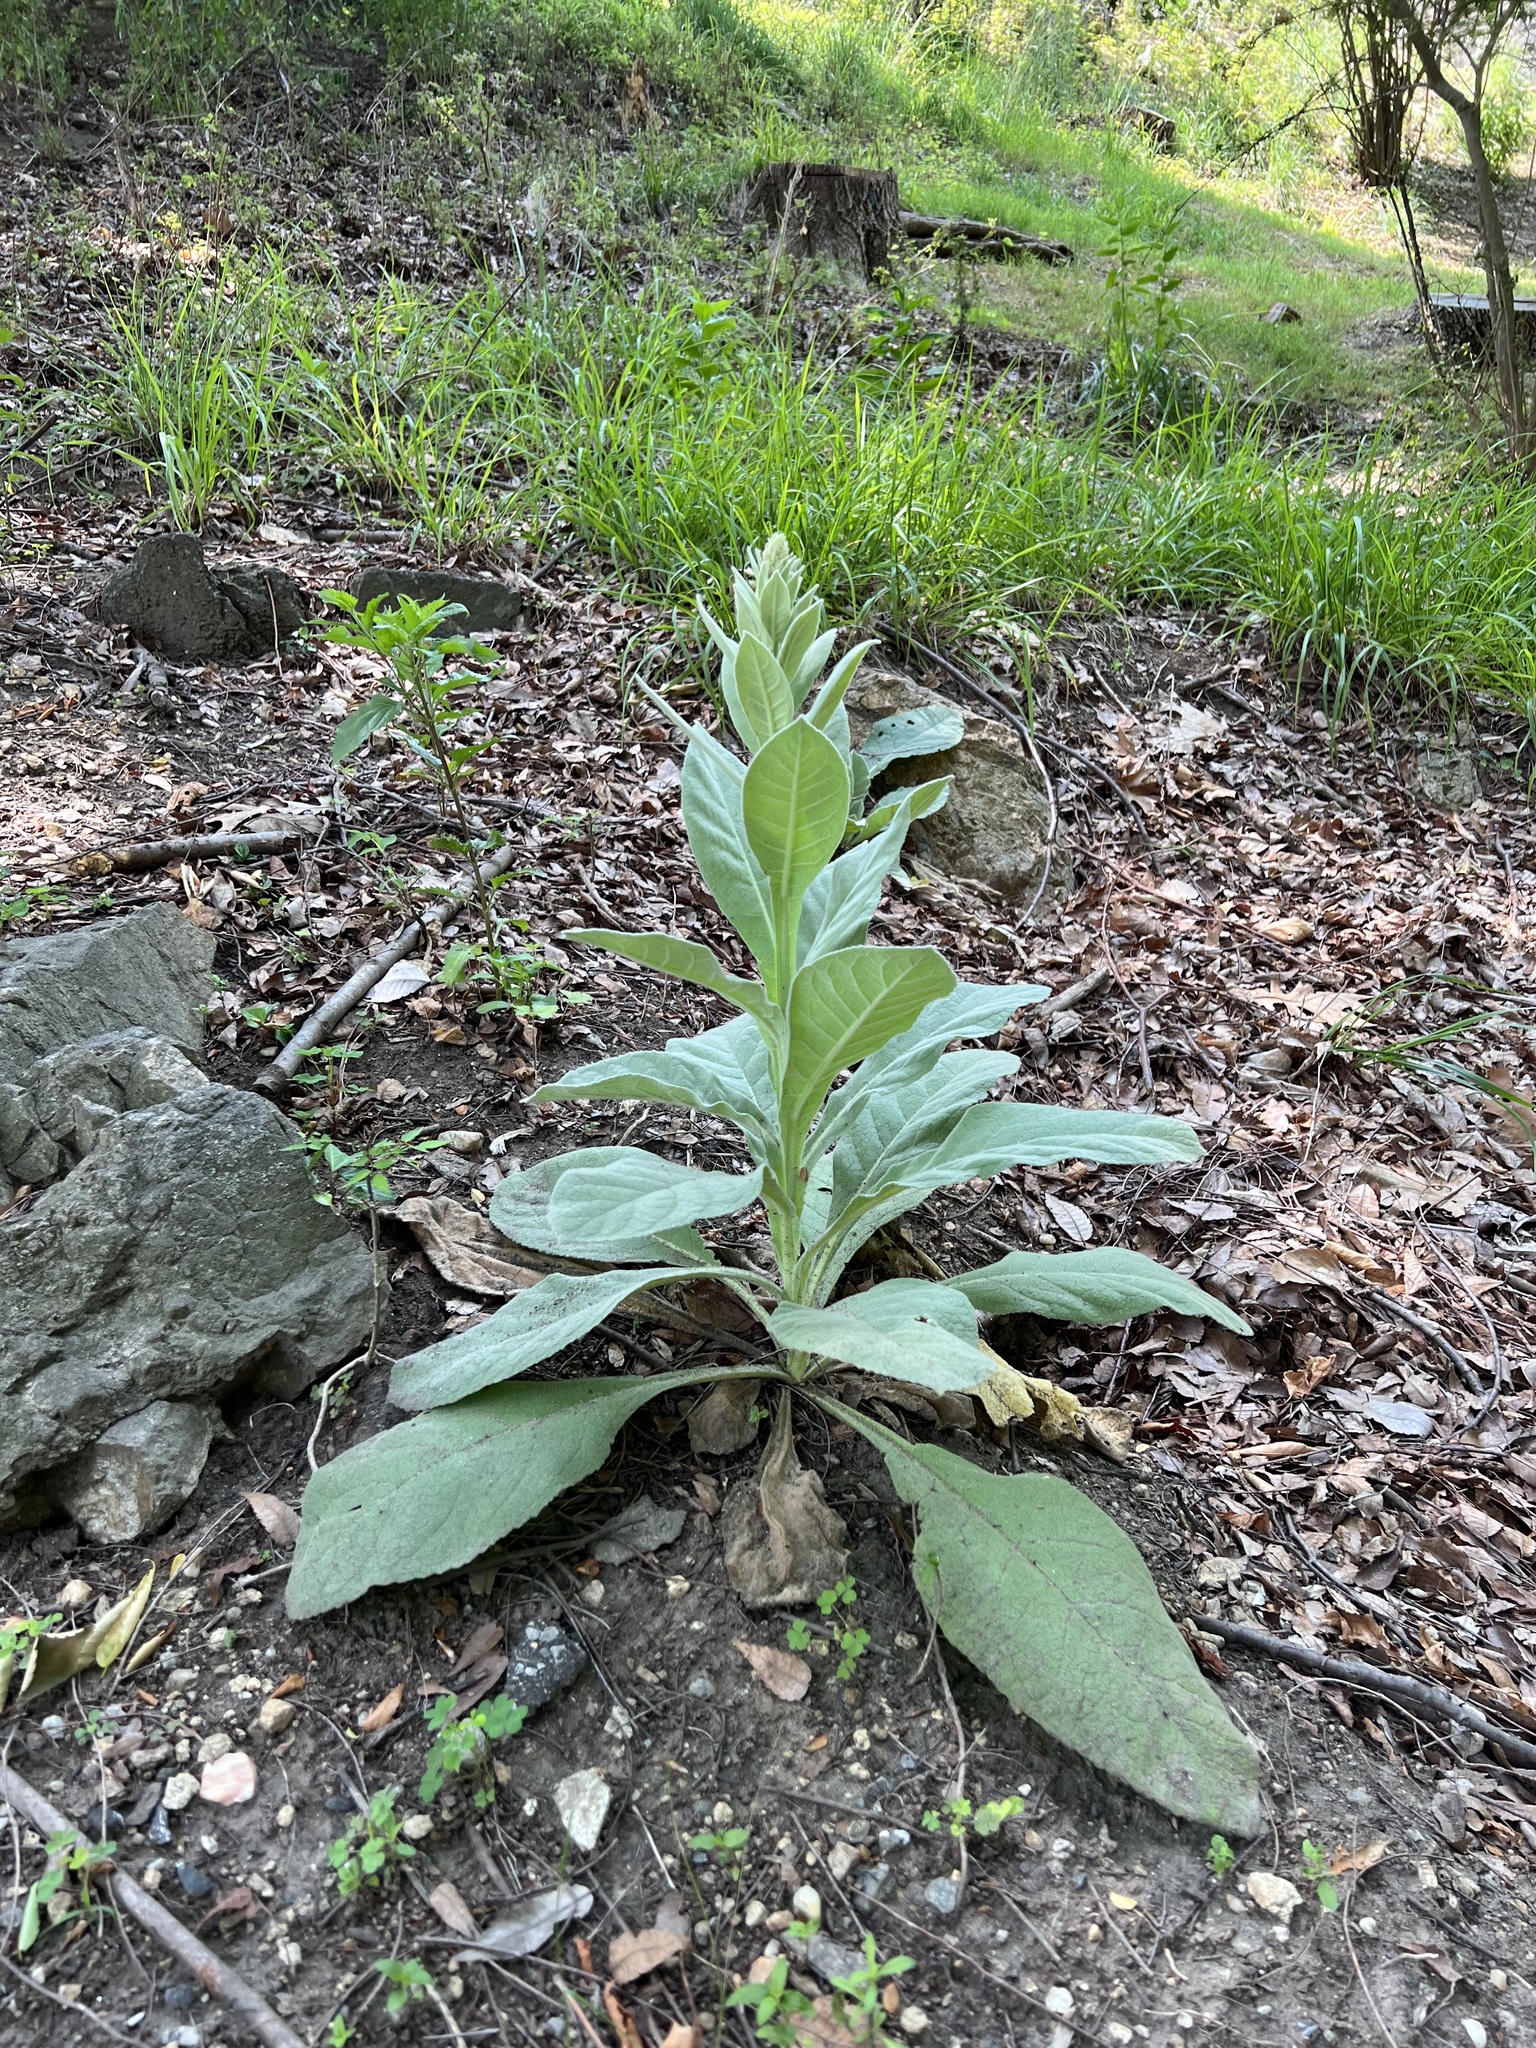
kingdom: Plantae
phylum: Tracheophyta
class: Magnoliopsida
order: Lamiales
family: Scrophulariaceae
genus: Verbascum
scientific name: Verbascum thapsus
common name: Common mullein
